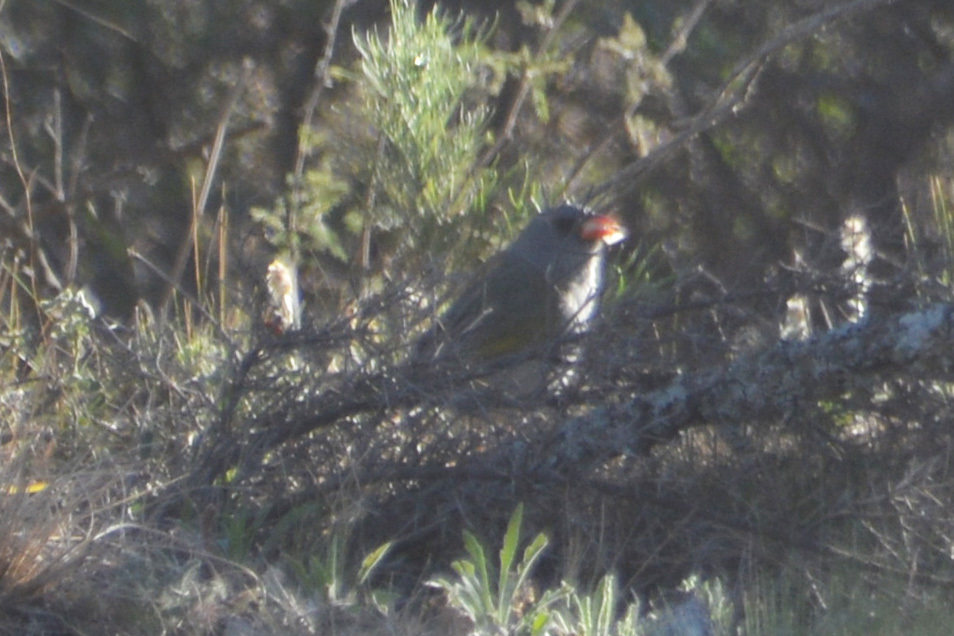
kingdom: Animalia
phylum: Chordata
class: Aves
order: Passeriformes
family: Thraupidae
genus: Embernagra
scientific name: Embernagra platensis
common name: Pampa finch
